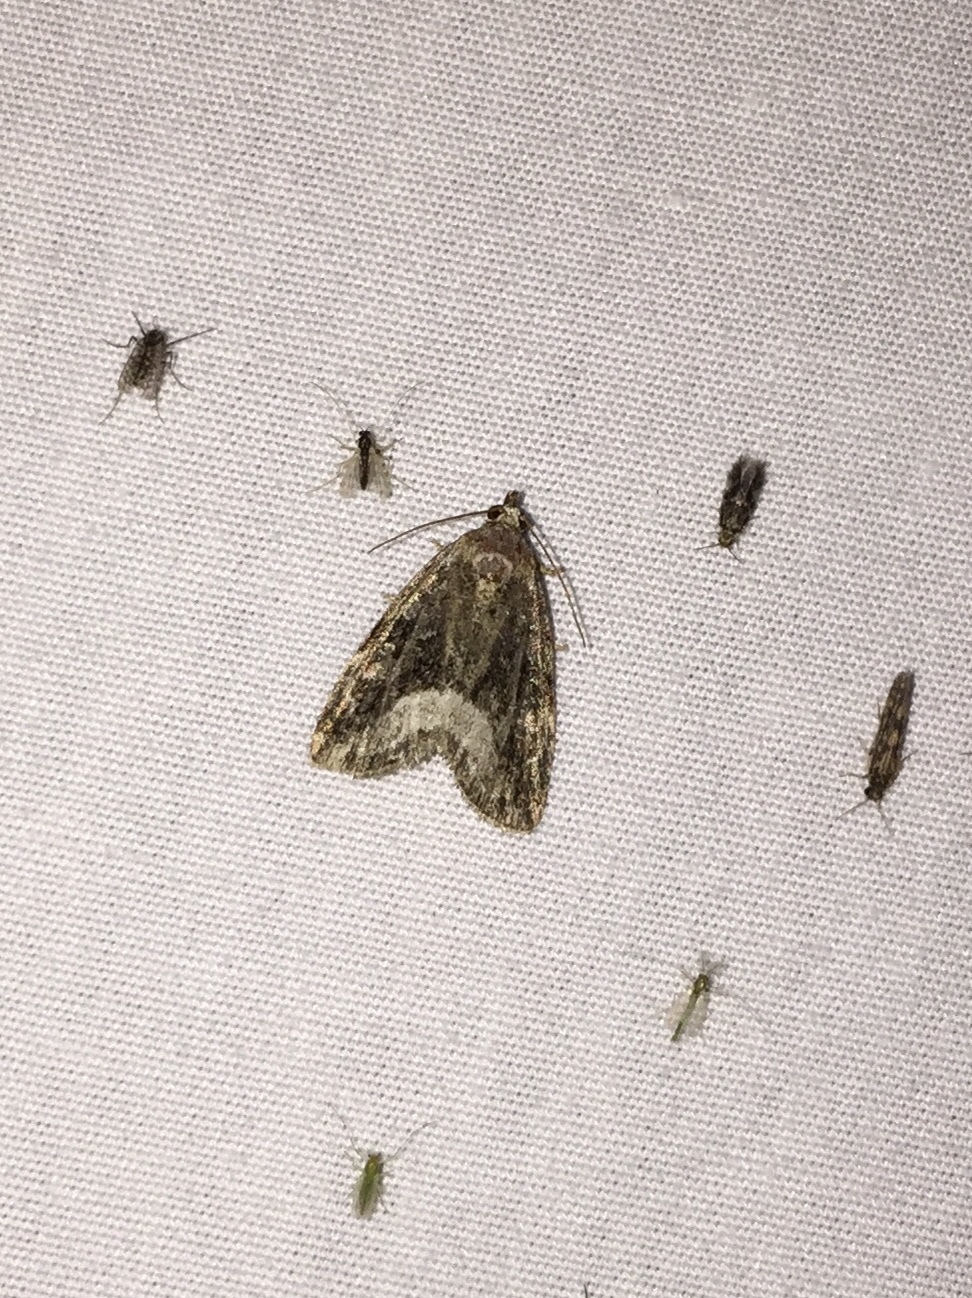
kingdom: Animalia
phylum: Arthropoda
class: Insecta
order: Lepidoptera
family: Noctuidae
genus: Protodeltote
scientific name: Protodeltote muscosula
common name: Large mossy glyph
